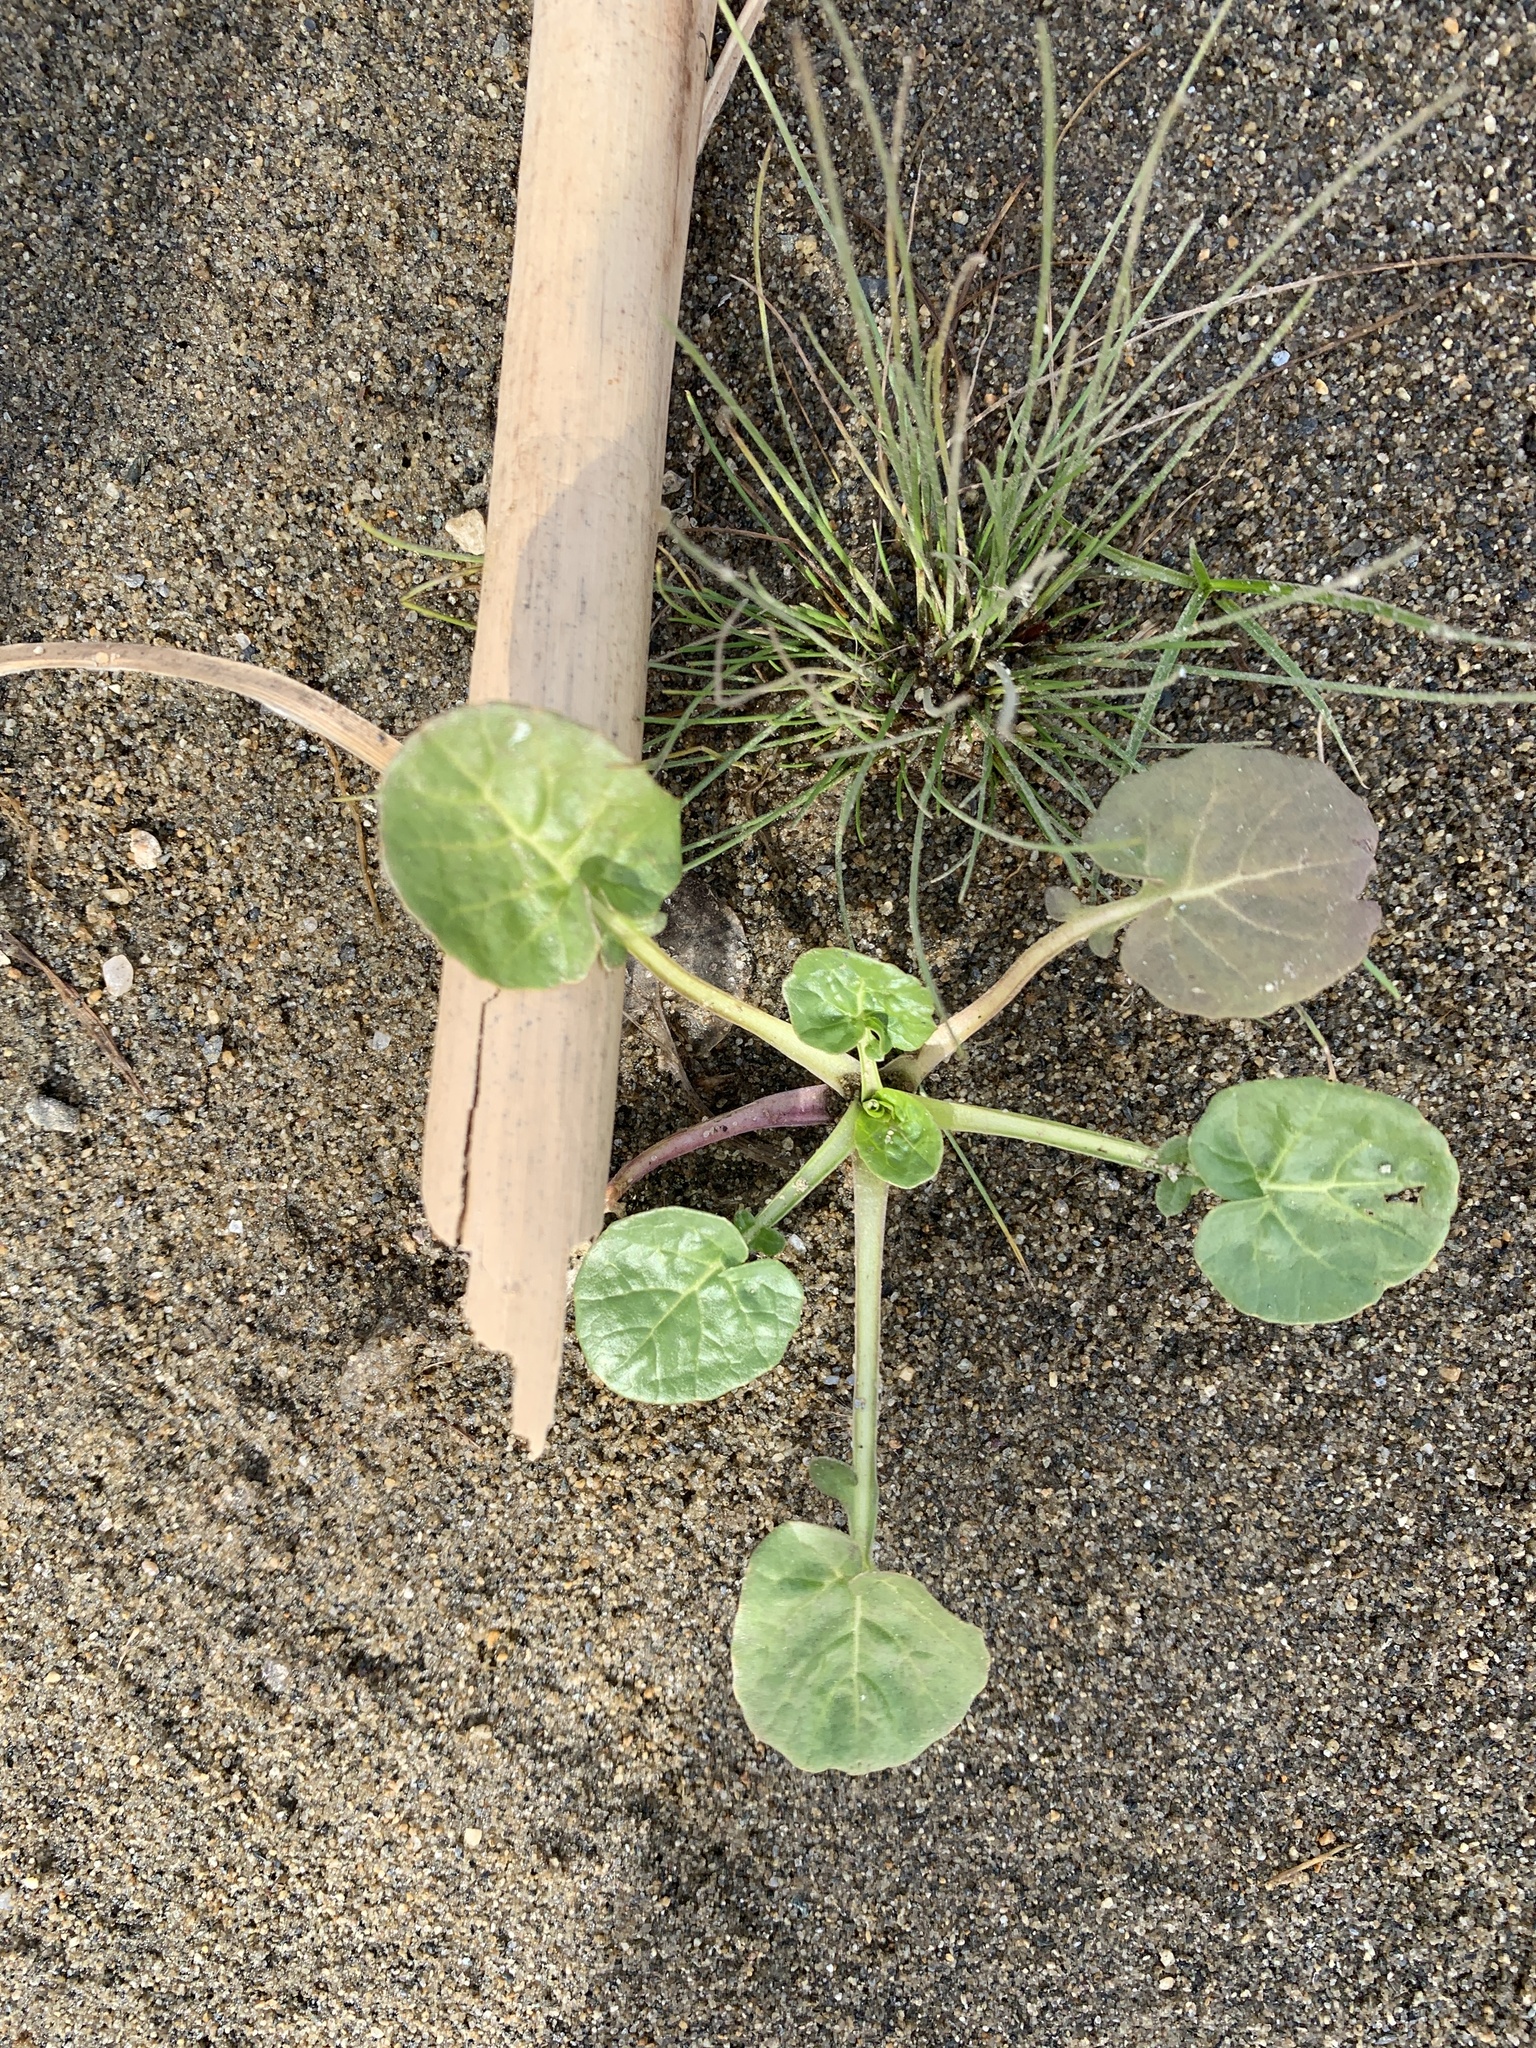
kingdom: Plantae
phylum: Tracheophyta
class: Magnoliopsida
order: Brassicales
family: Brassicaceae
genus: Barbarea
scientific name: Barbarea vulgaris
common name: Cressy-greens
